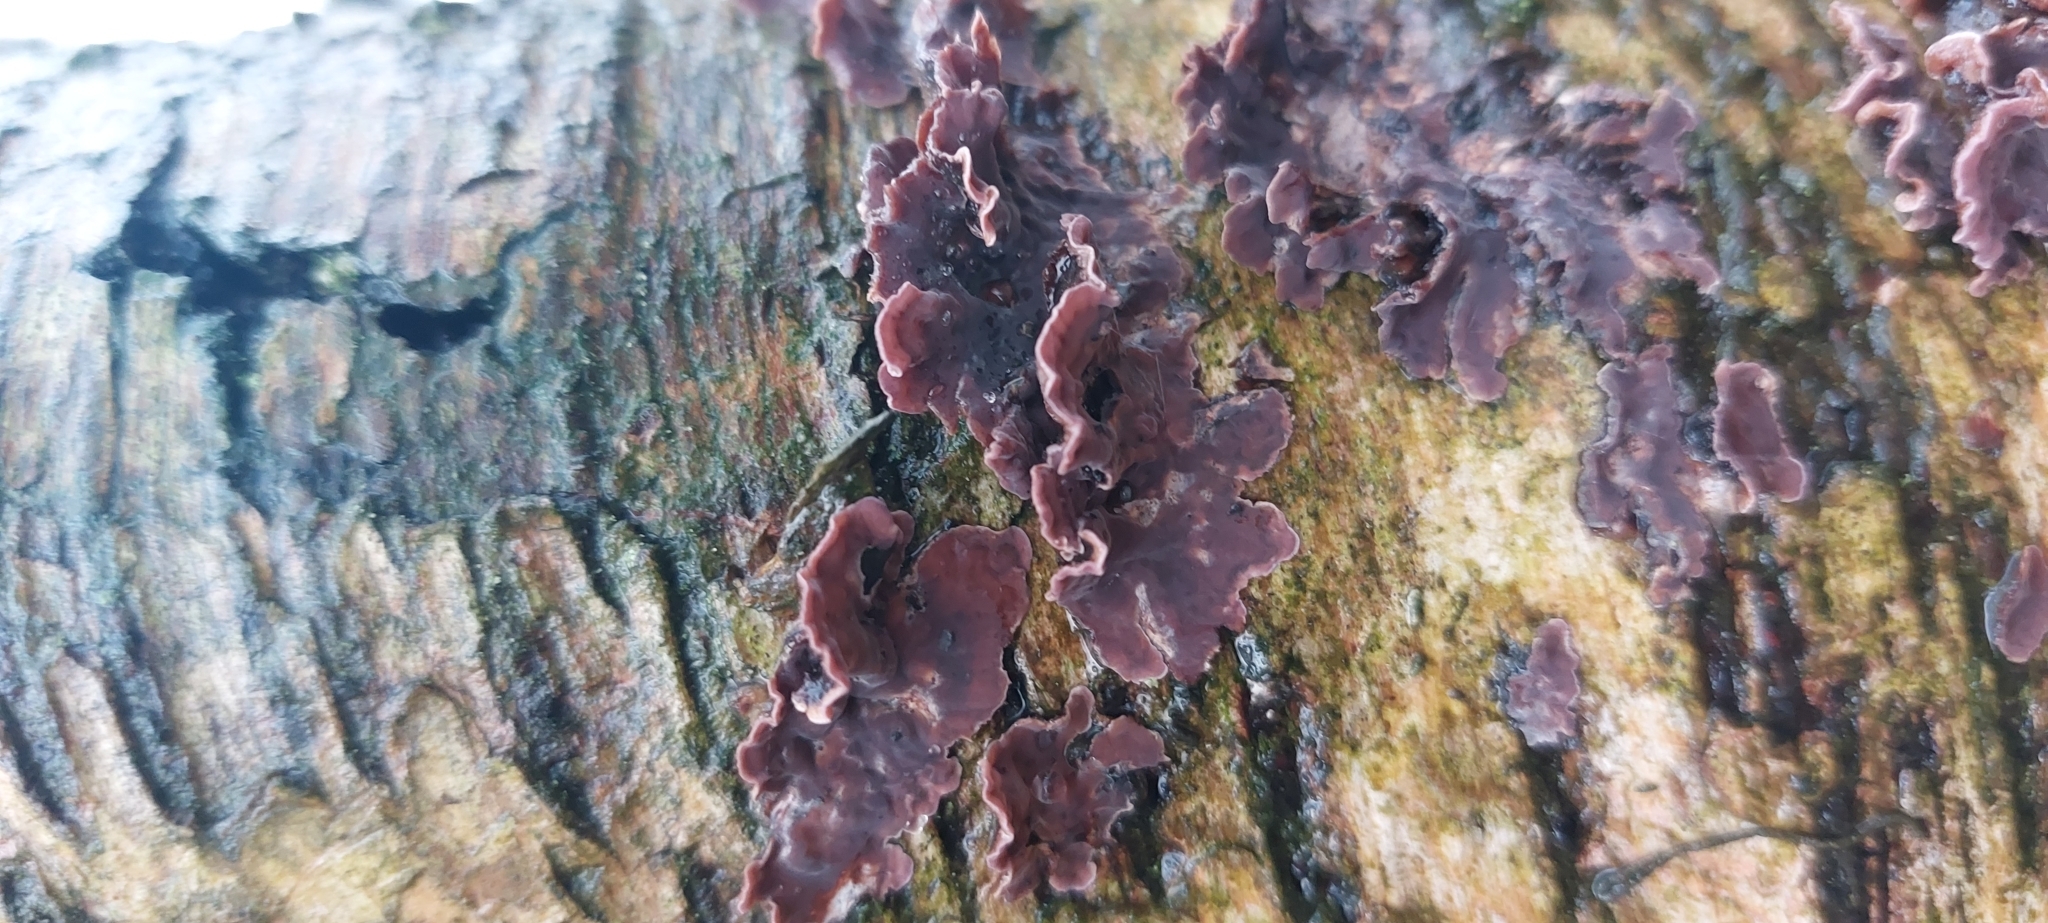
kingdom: Fungi
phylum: Basidiomycota
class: Agaricomycetes
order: Agaricales
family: Cyphellaceae
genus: Chondrostereum
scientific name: Chondrostereum purpureum
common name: Silver leaf disease
